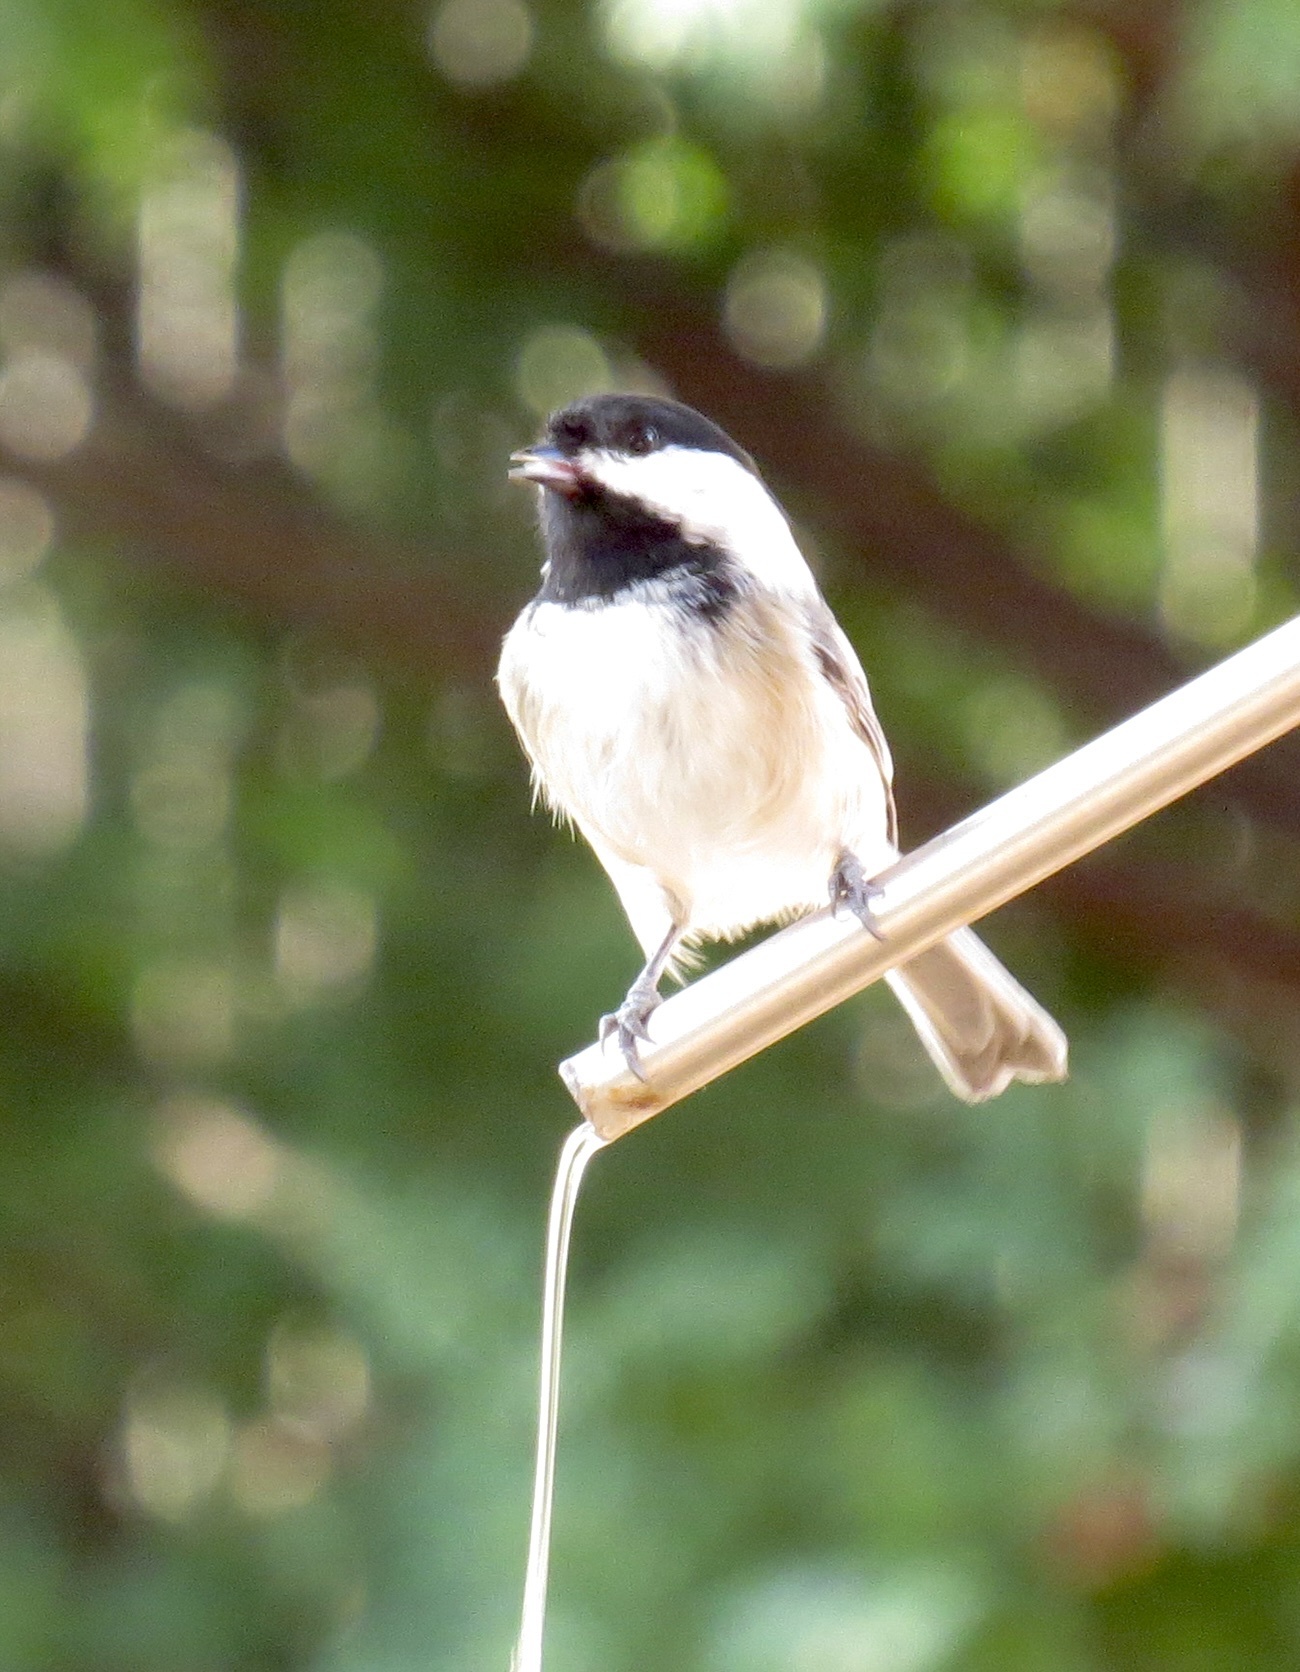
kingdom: Animalia
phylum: Chordata
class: Aves
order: Passeriformes
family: Paridae
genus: Poecile
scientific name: Poecile atricapillus
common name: Black-capped chickadee
